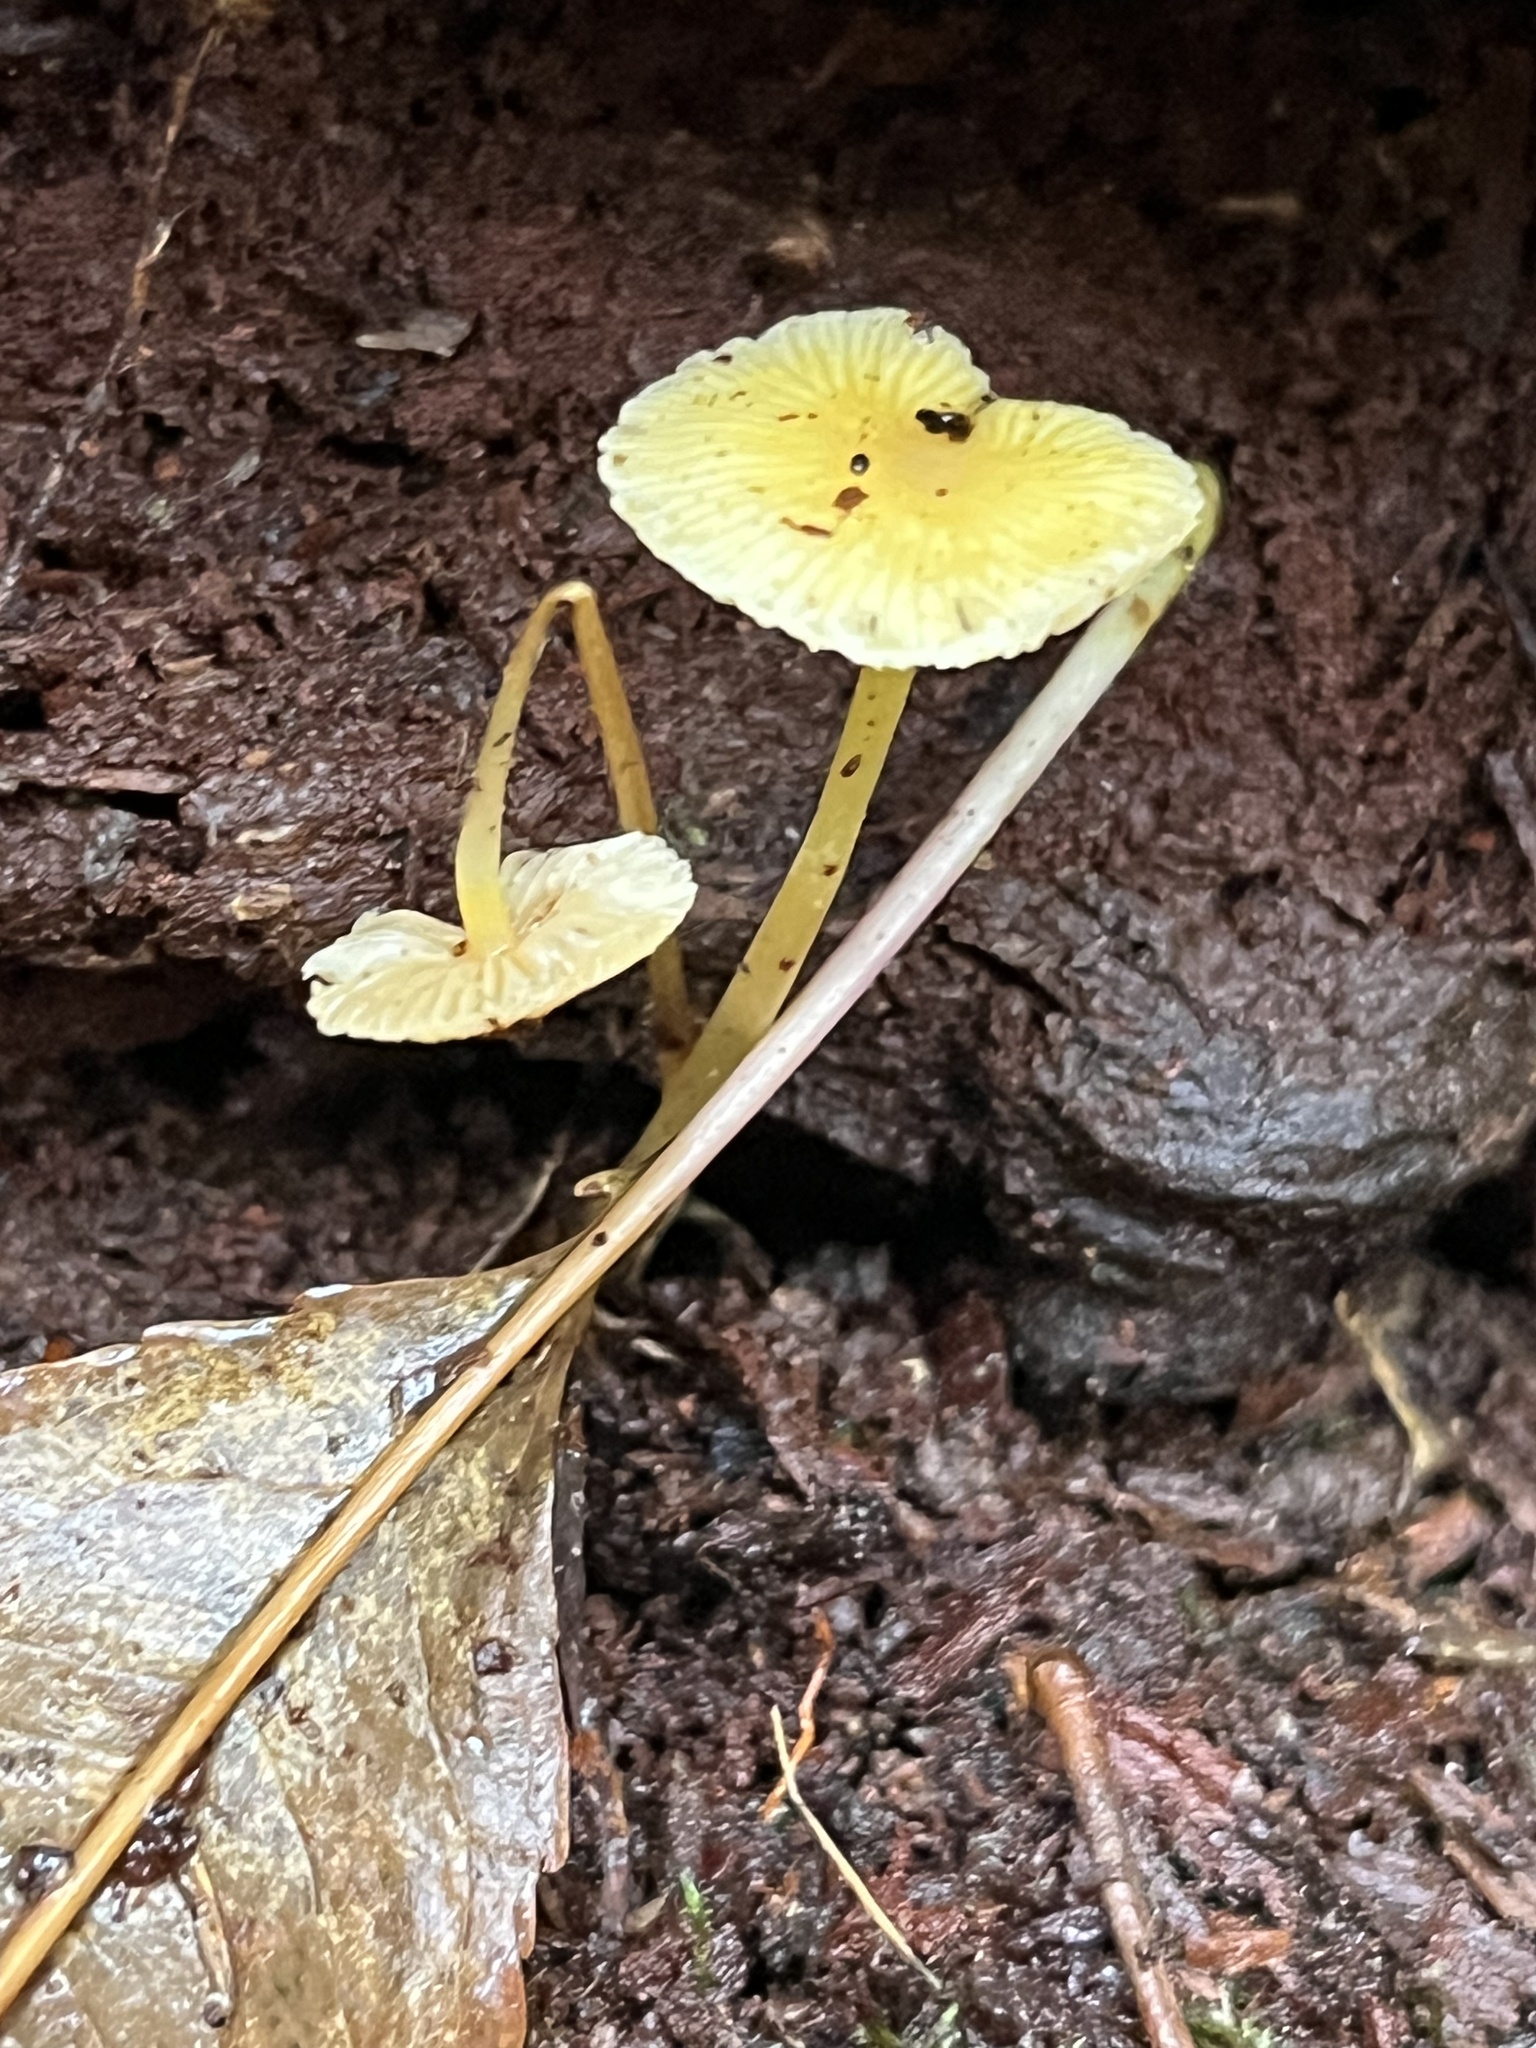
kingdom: Fungi
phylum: Basidiomycota
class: Agaricomycetes
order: Agaricales
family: Mycenaceae
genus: Mycena
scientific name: Mycena crocea
